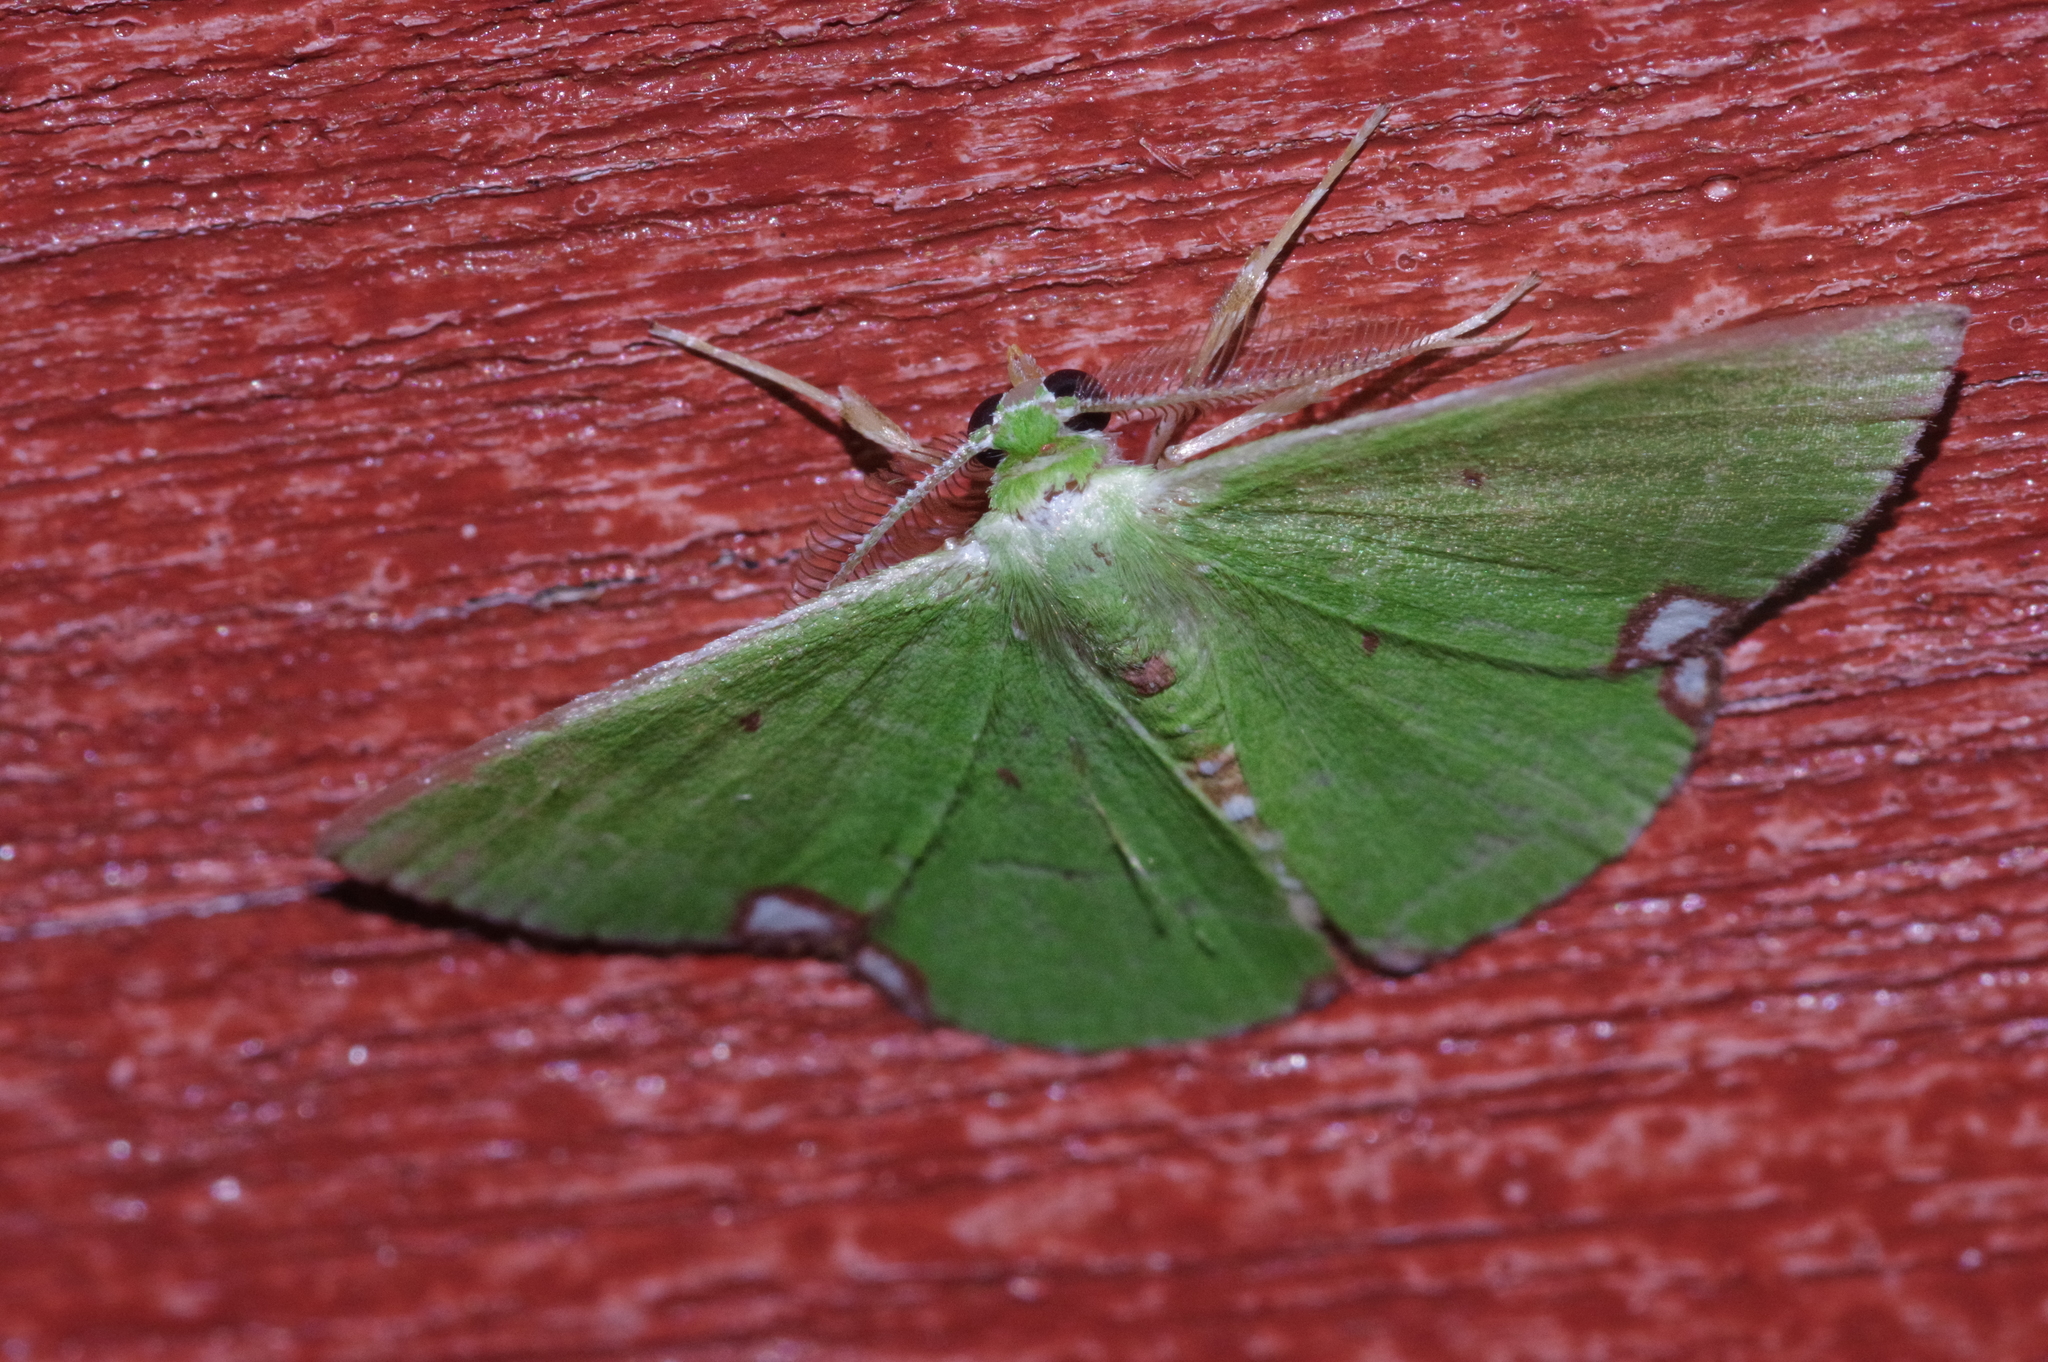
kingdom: Animalia
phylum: Arthropoda
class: Insecta
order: Lepidoptera
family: Geometridae
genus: Comibaena
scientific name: Comibaena procumbaria
